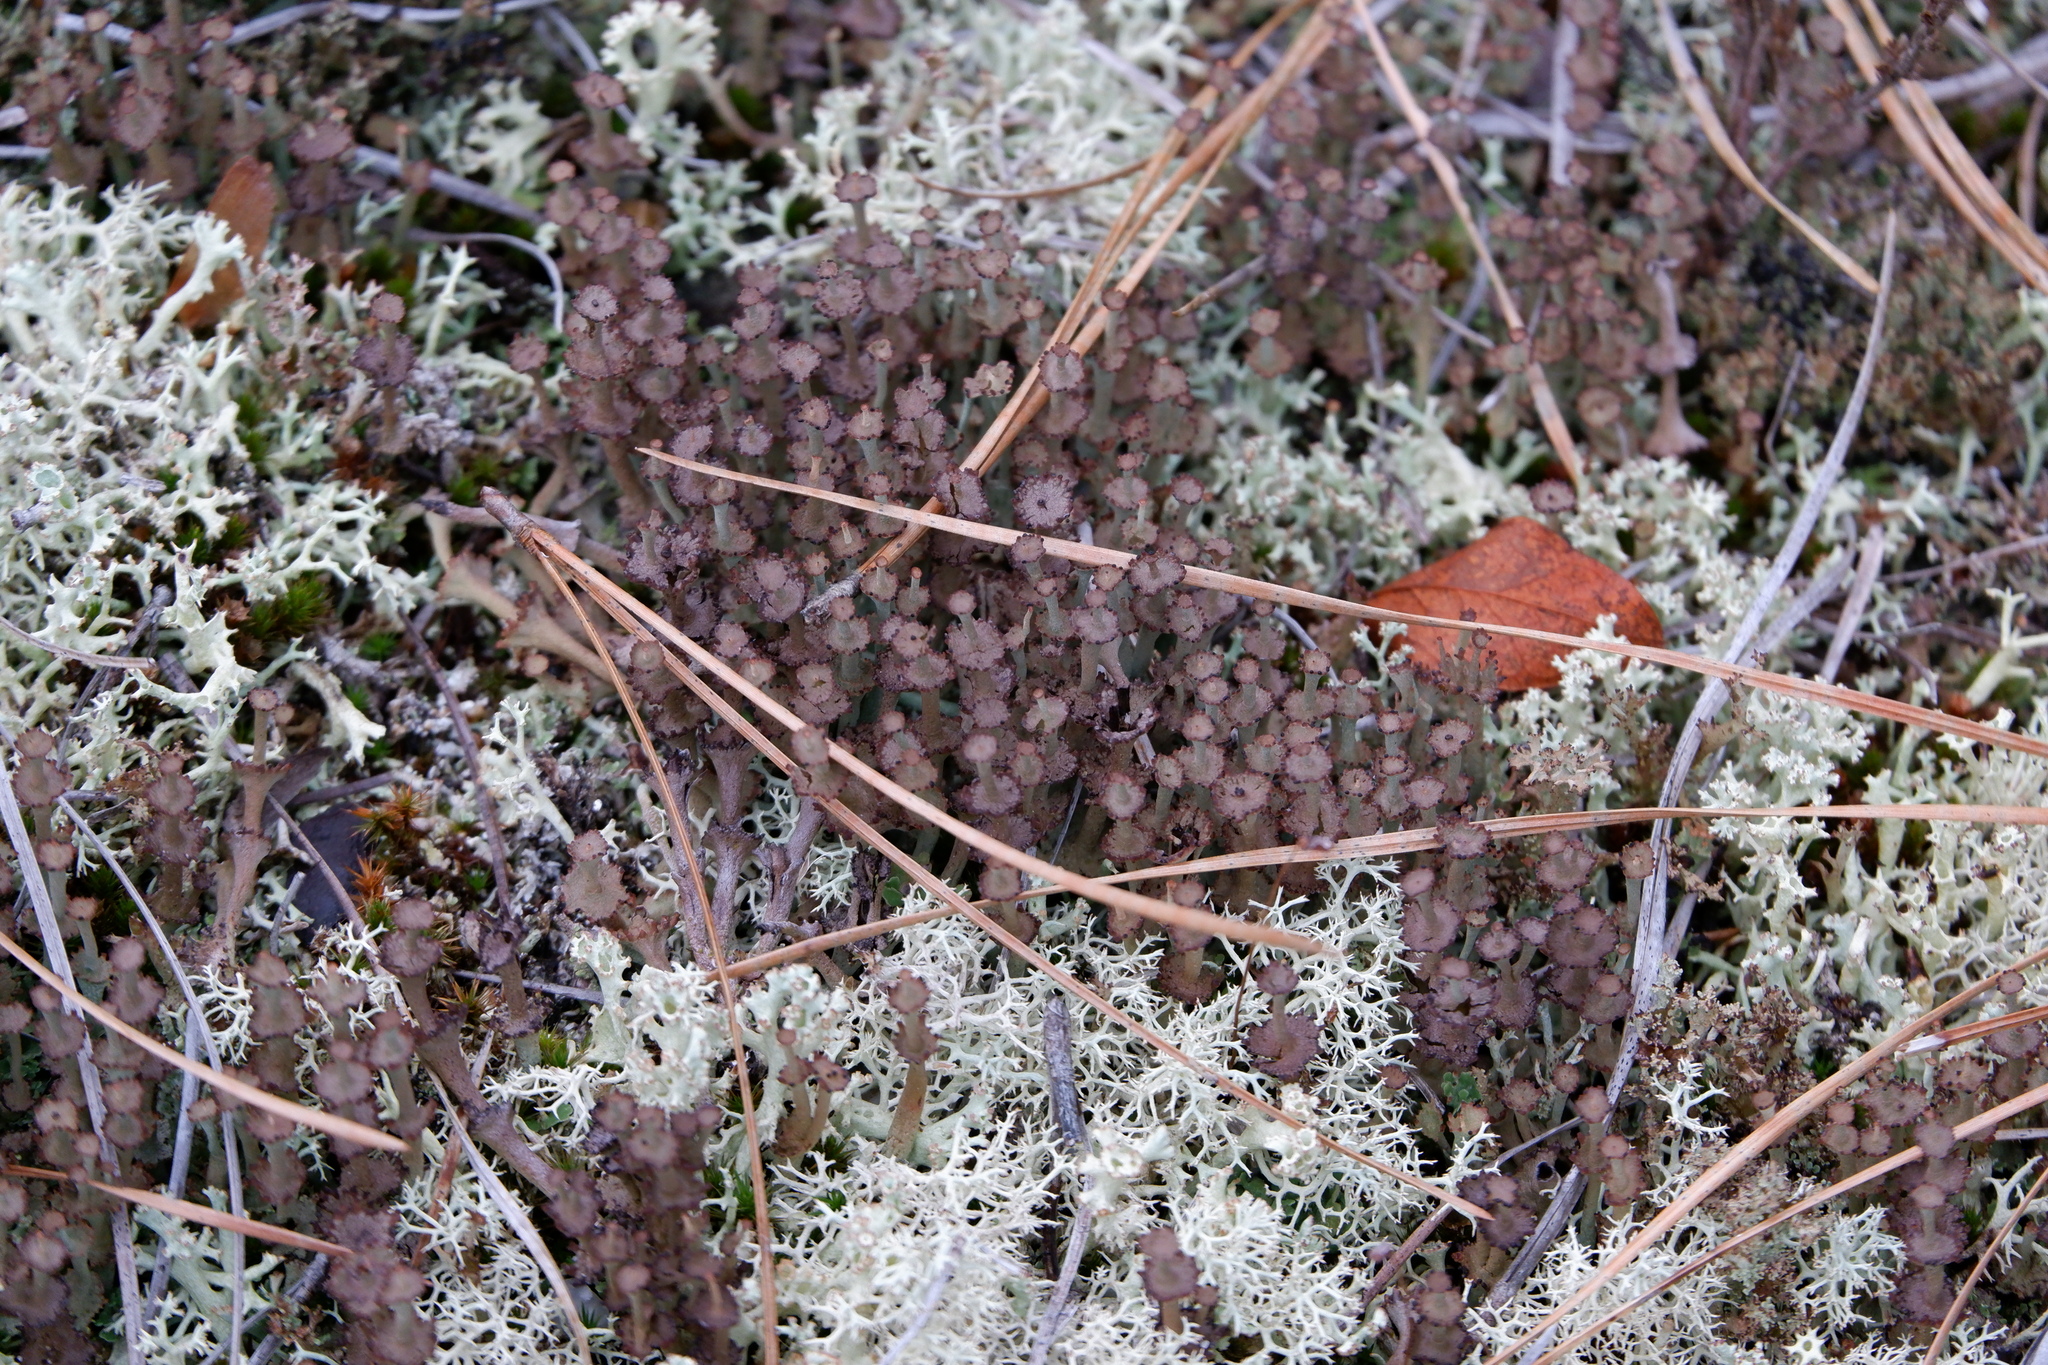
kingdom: Fungi
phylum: Ascomycota
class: Lecanoromycetes
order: Lecanorales
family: Cladoniaceae
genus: Cladonia
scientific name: Cladonia cervicornis
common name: Browned pixie-cup lichen
